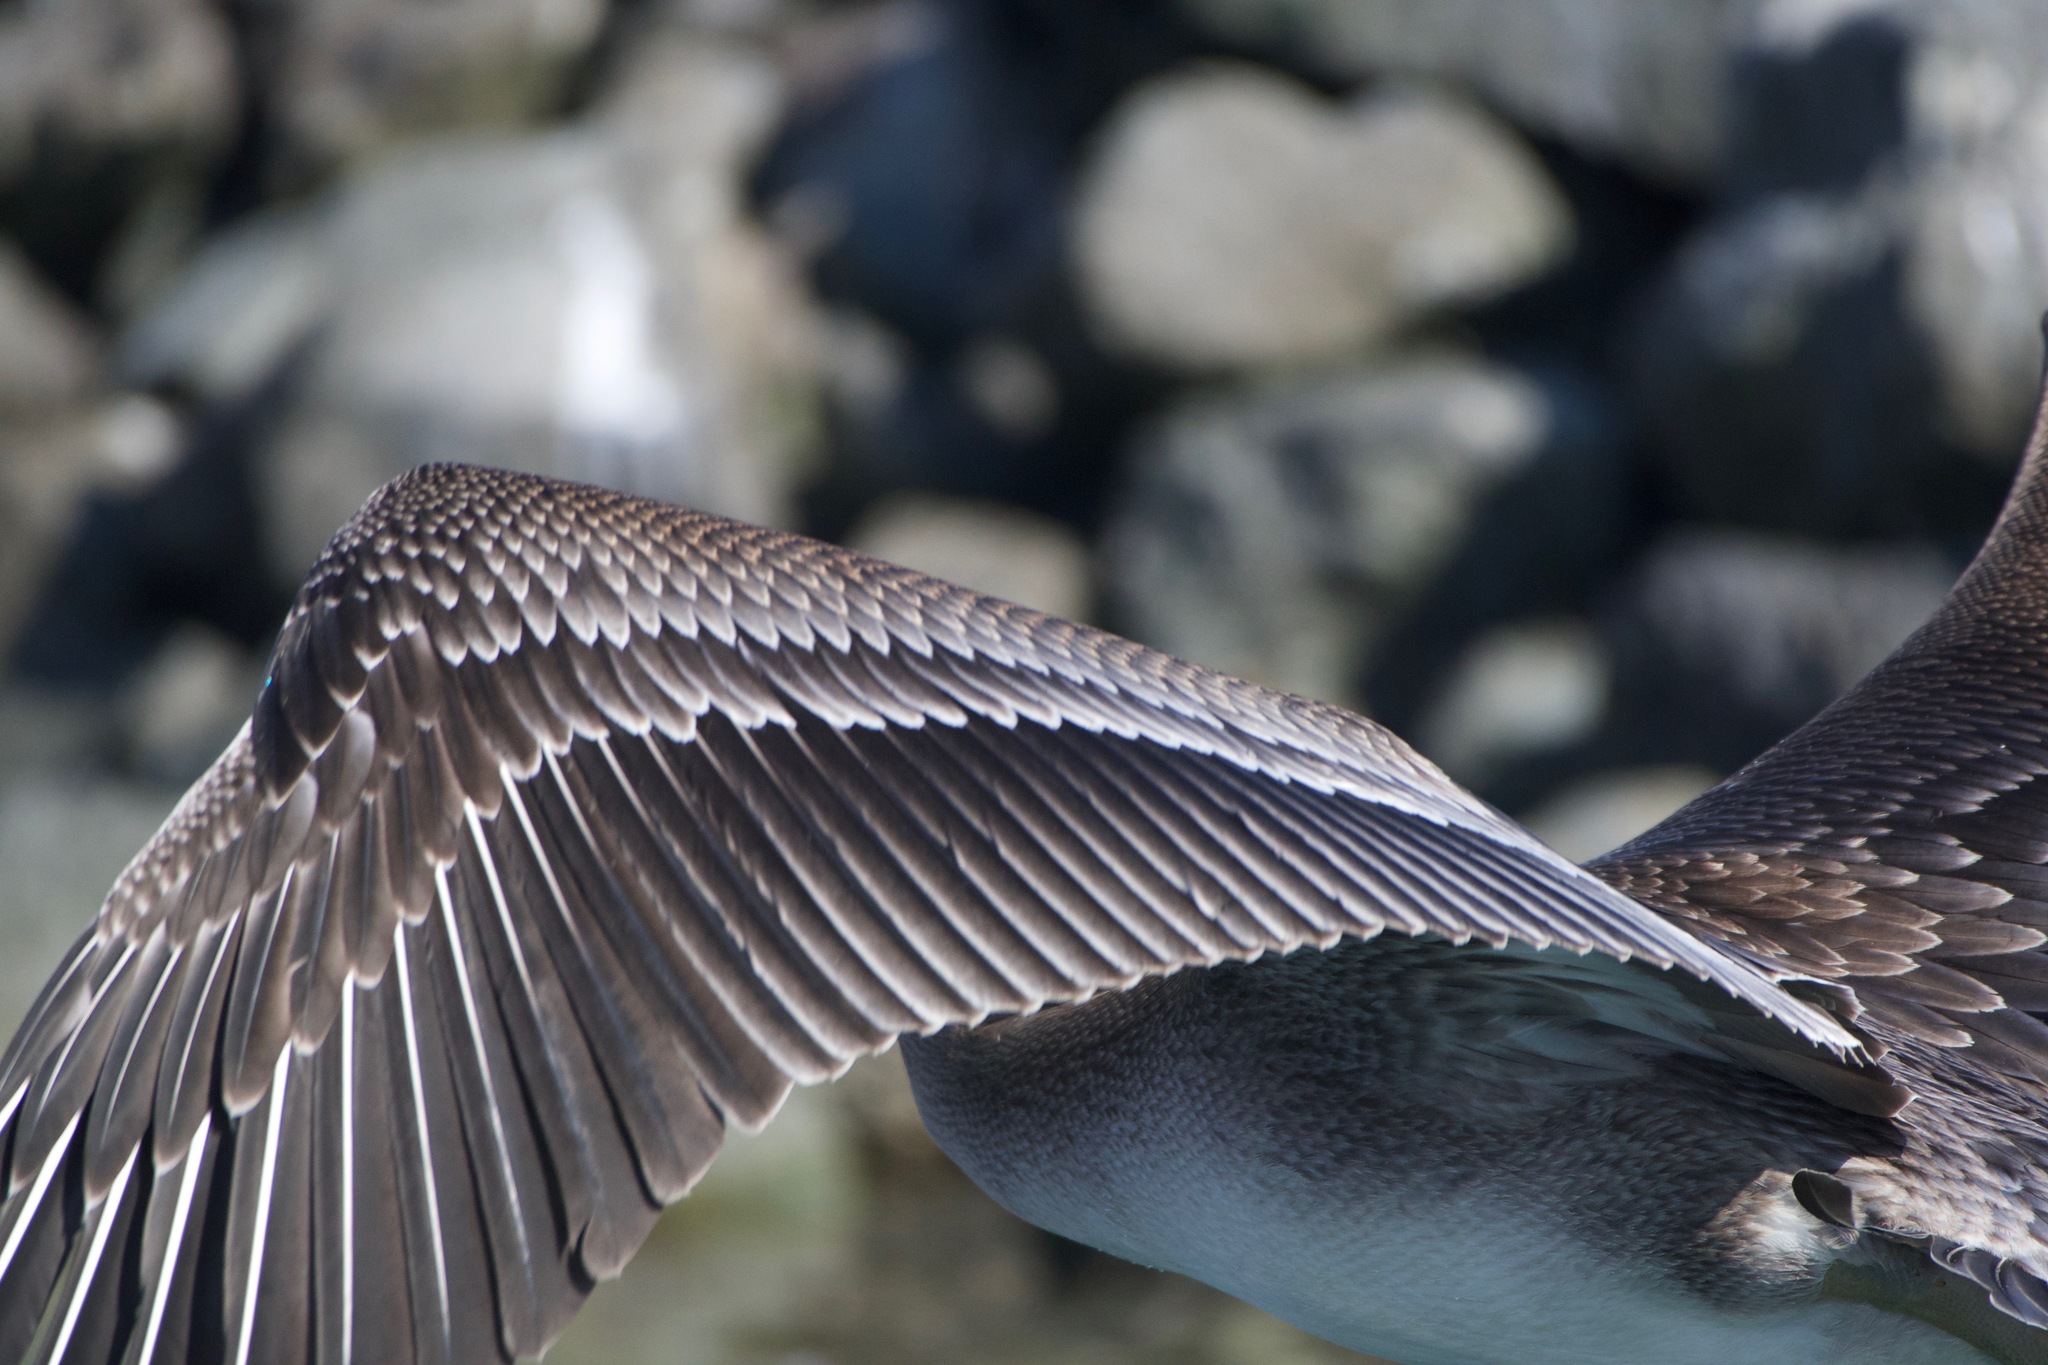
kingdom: Animalia
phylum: Chordata
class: Aves
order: Pelecaniformes
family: Pelecanidae
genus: Pelecanus
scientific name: Pelecanus occidentalis
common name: Brown pelican
